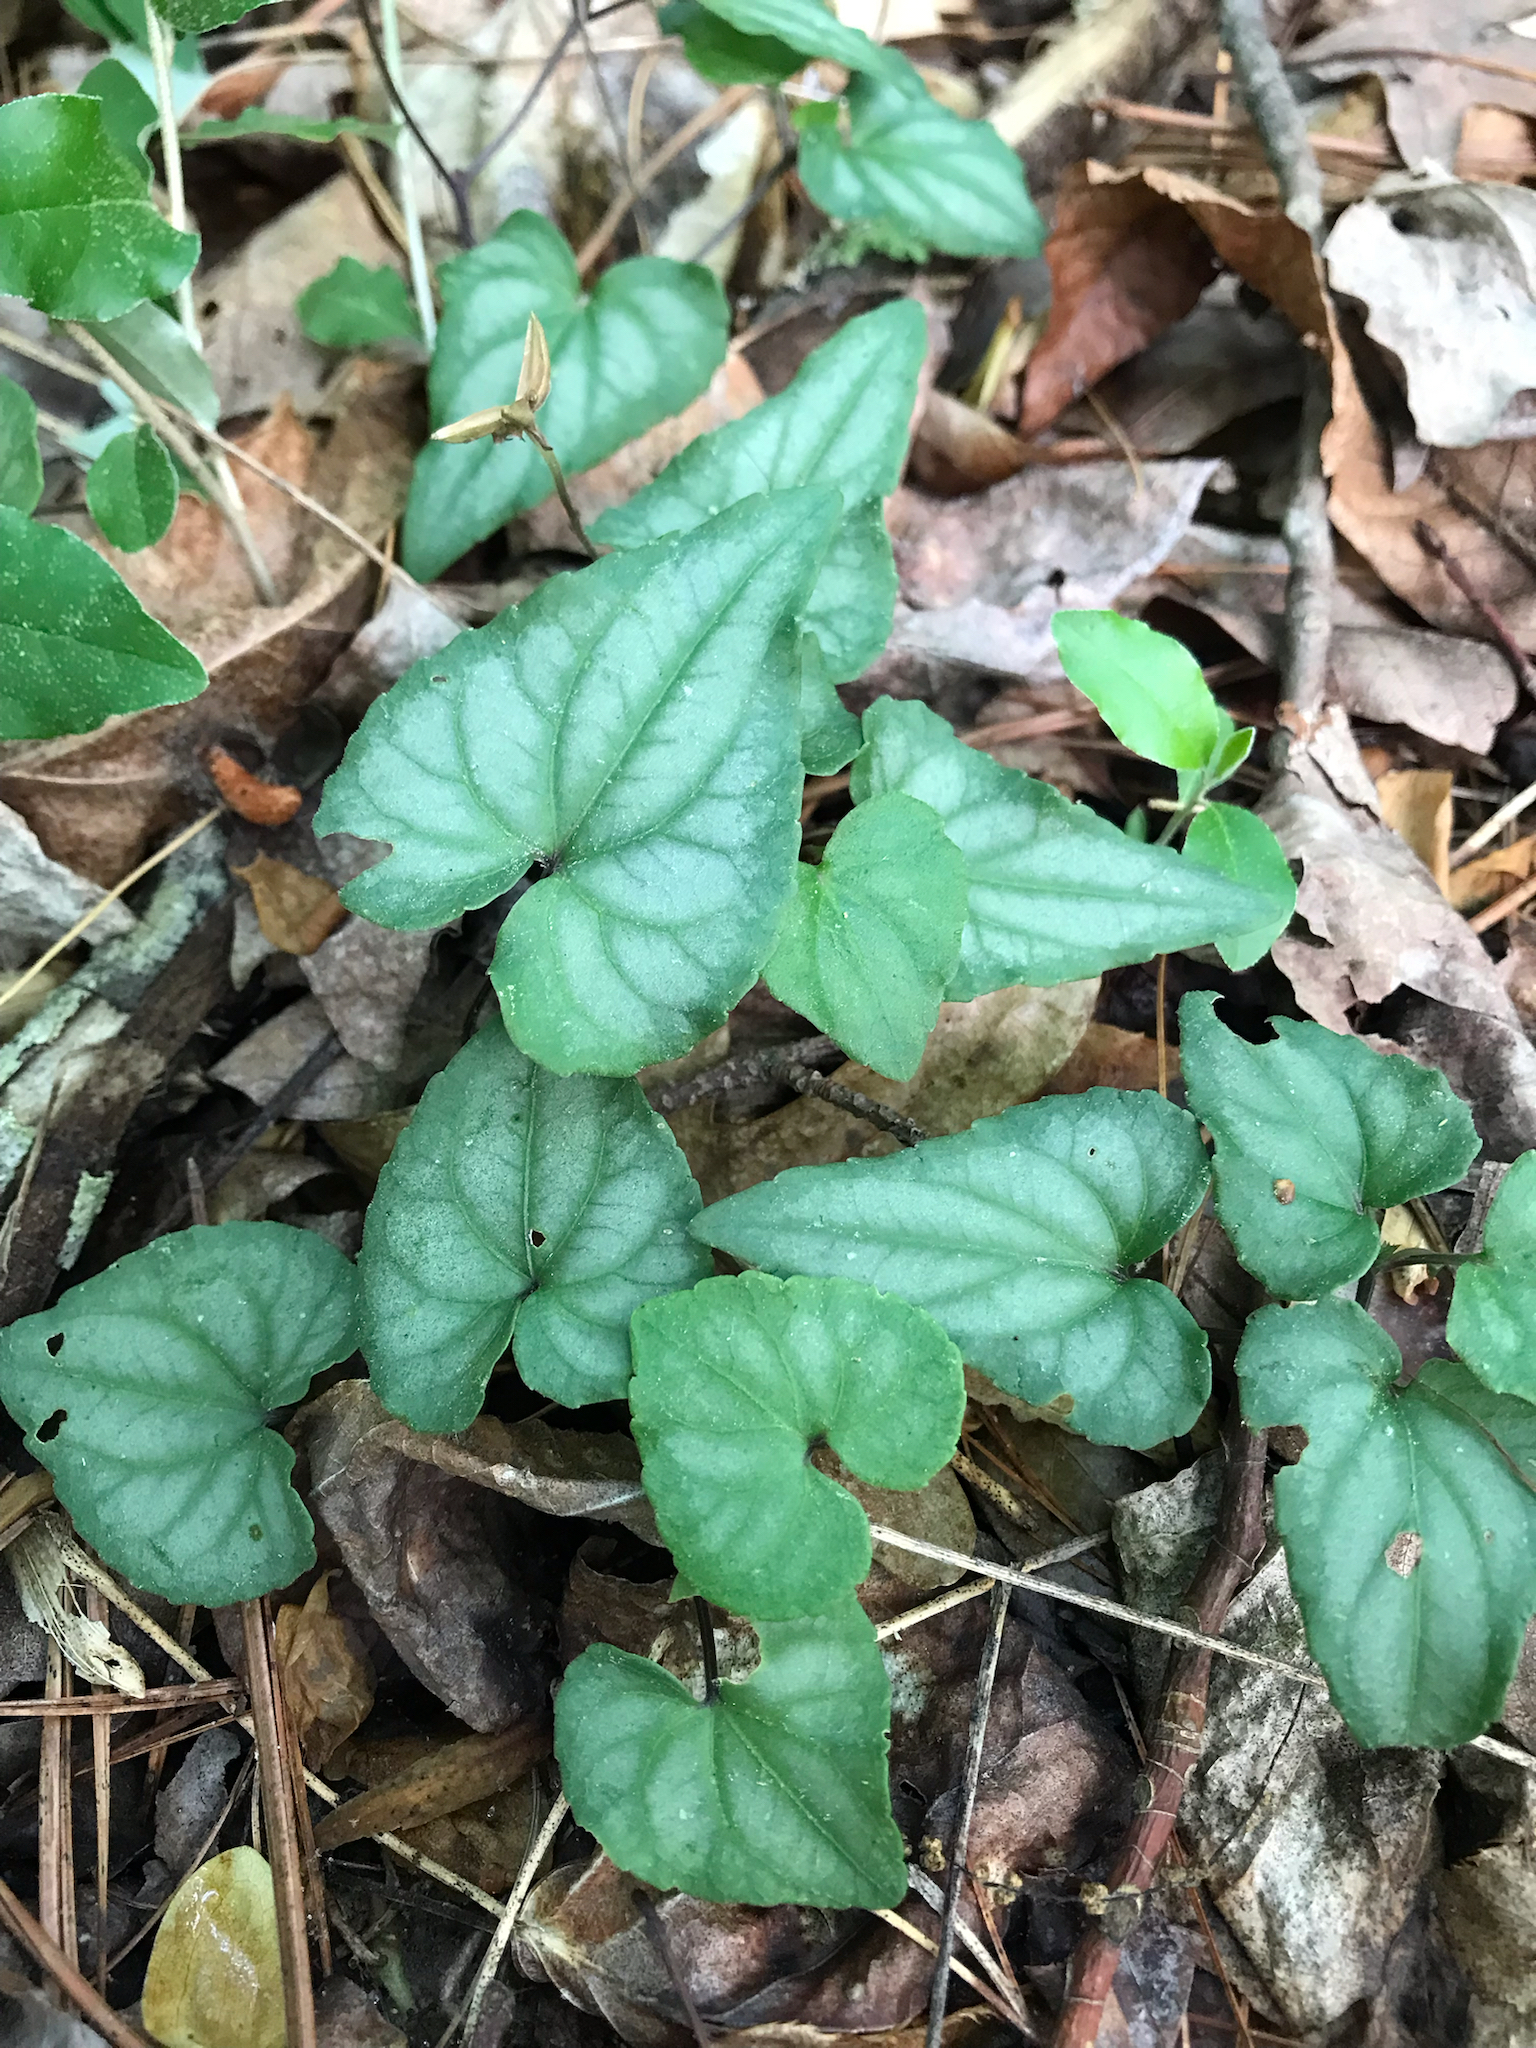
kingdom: Plantae
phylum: Tracheophyta
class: Magnoliopsida
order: Malpighiales
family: Violaceae
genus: Viola
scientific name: Viola hastata
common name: Spear-leaf violet
